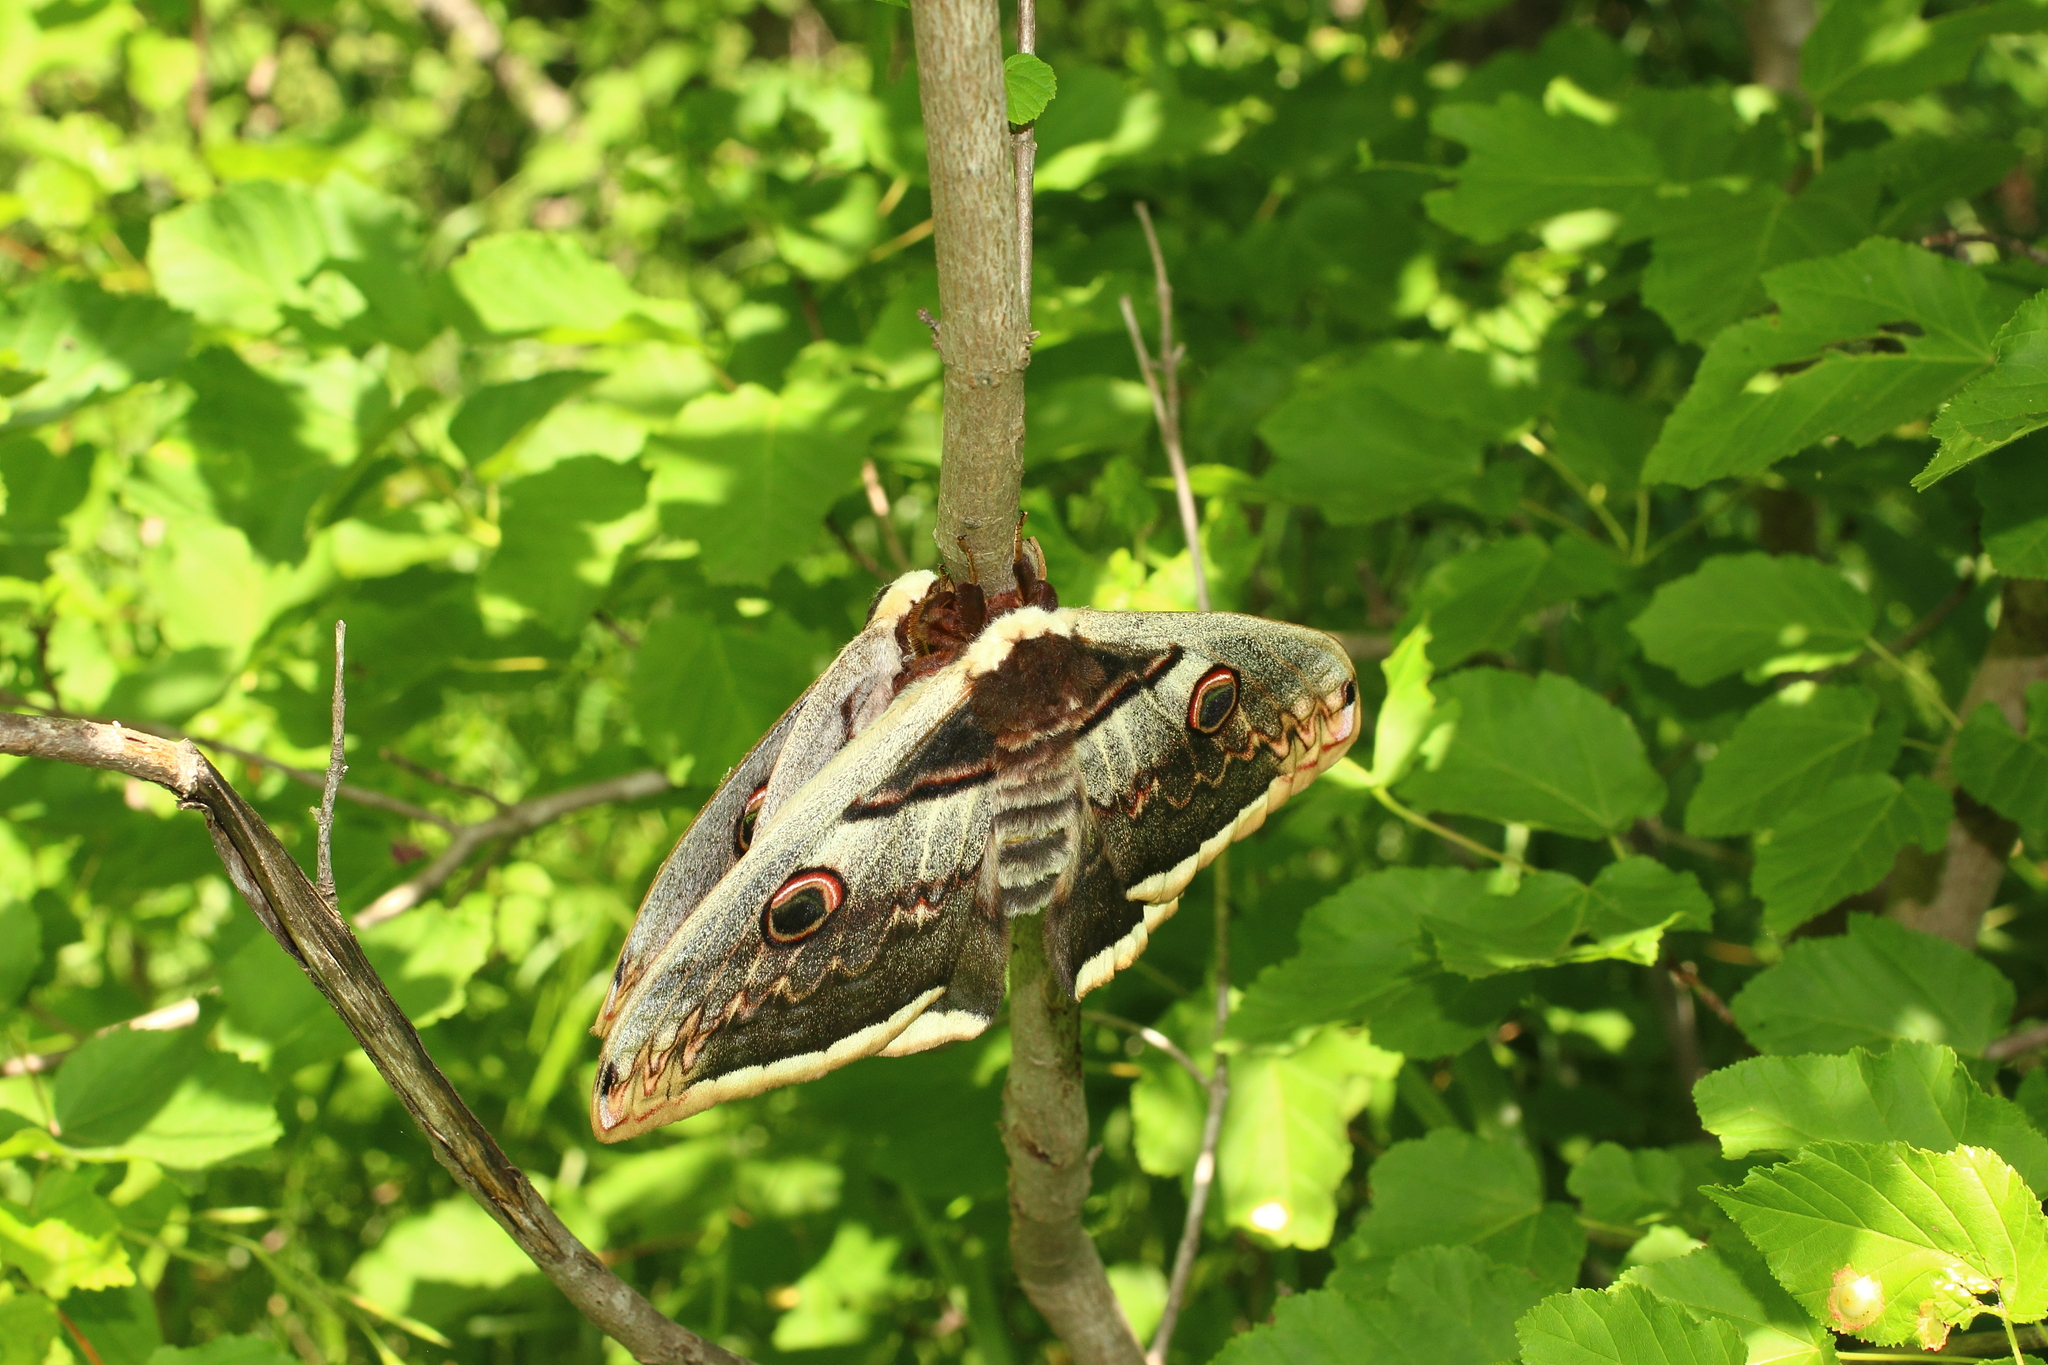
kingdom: Animalia
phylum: Arthropoda
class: Insecta
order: Lepidoptera
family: Saturniidae
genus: Saturnia
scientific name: Saturnia pyri
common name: Great peacock moth
